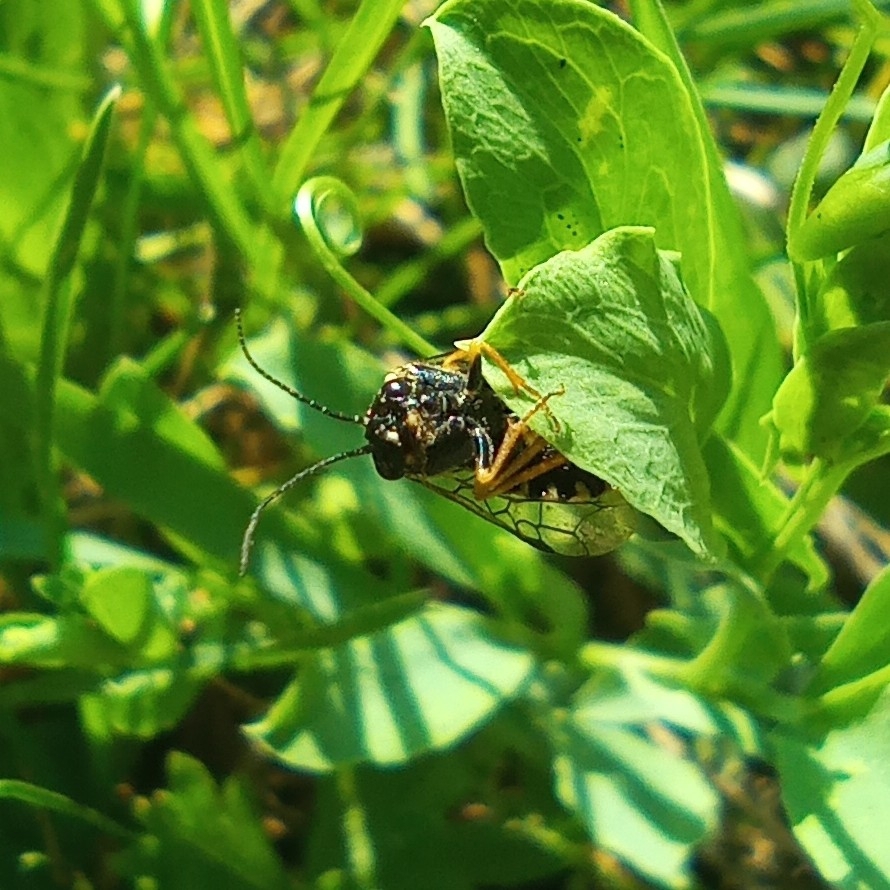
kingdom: Animalia
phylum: Arthropoda
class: Insecta
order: Hymenoptera
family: Pamphiliidae
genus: Neurotoma
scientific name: Neurotoma nemoralis
